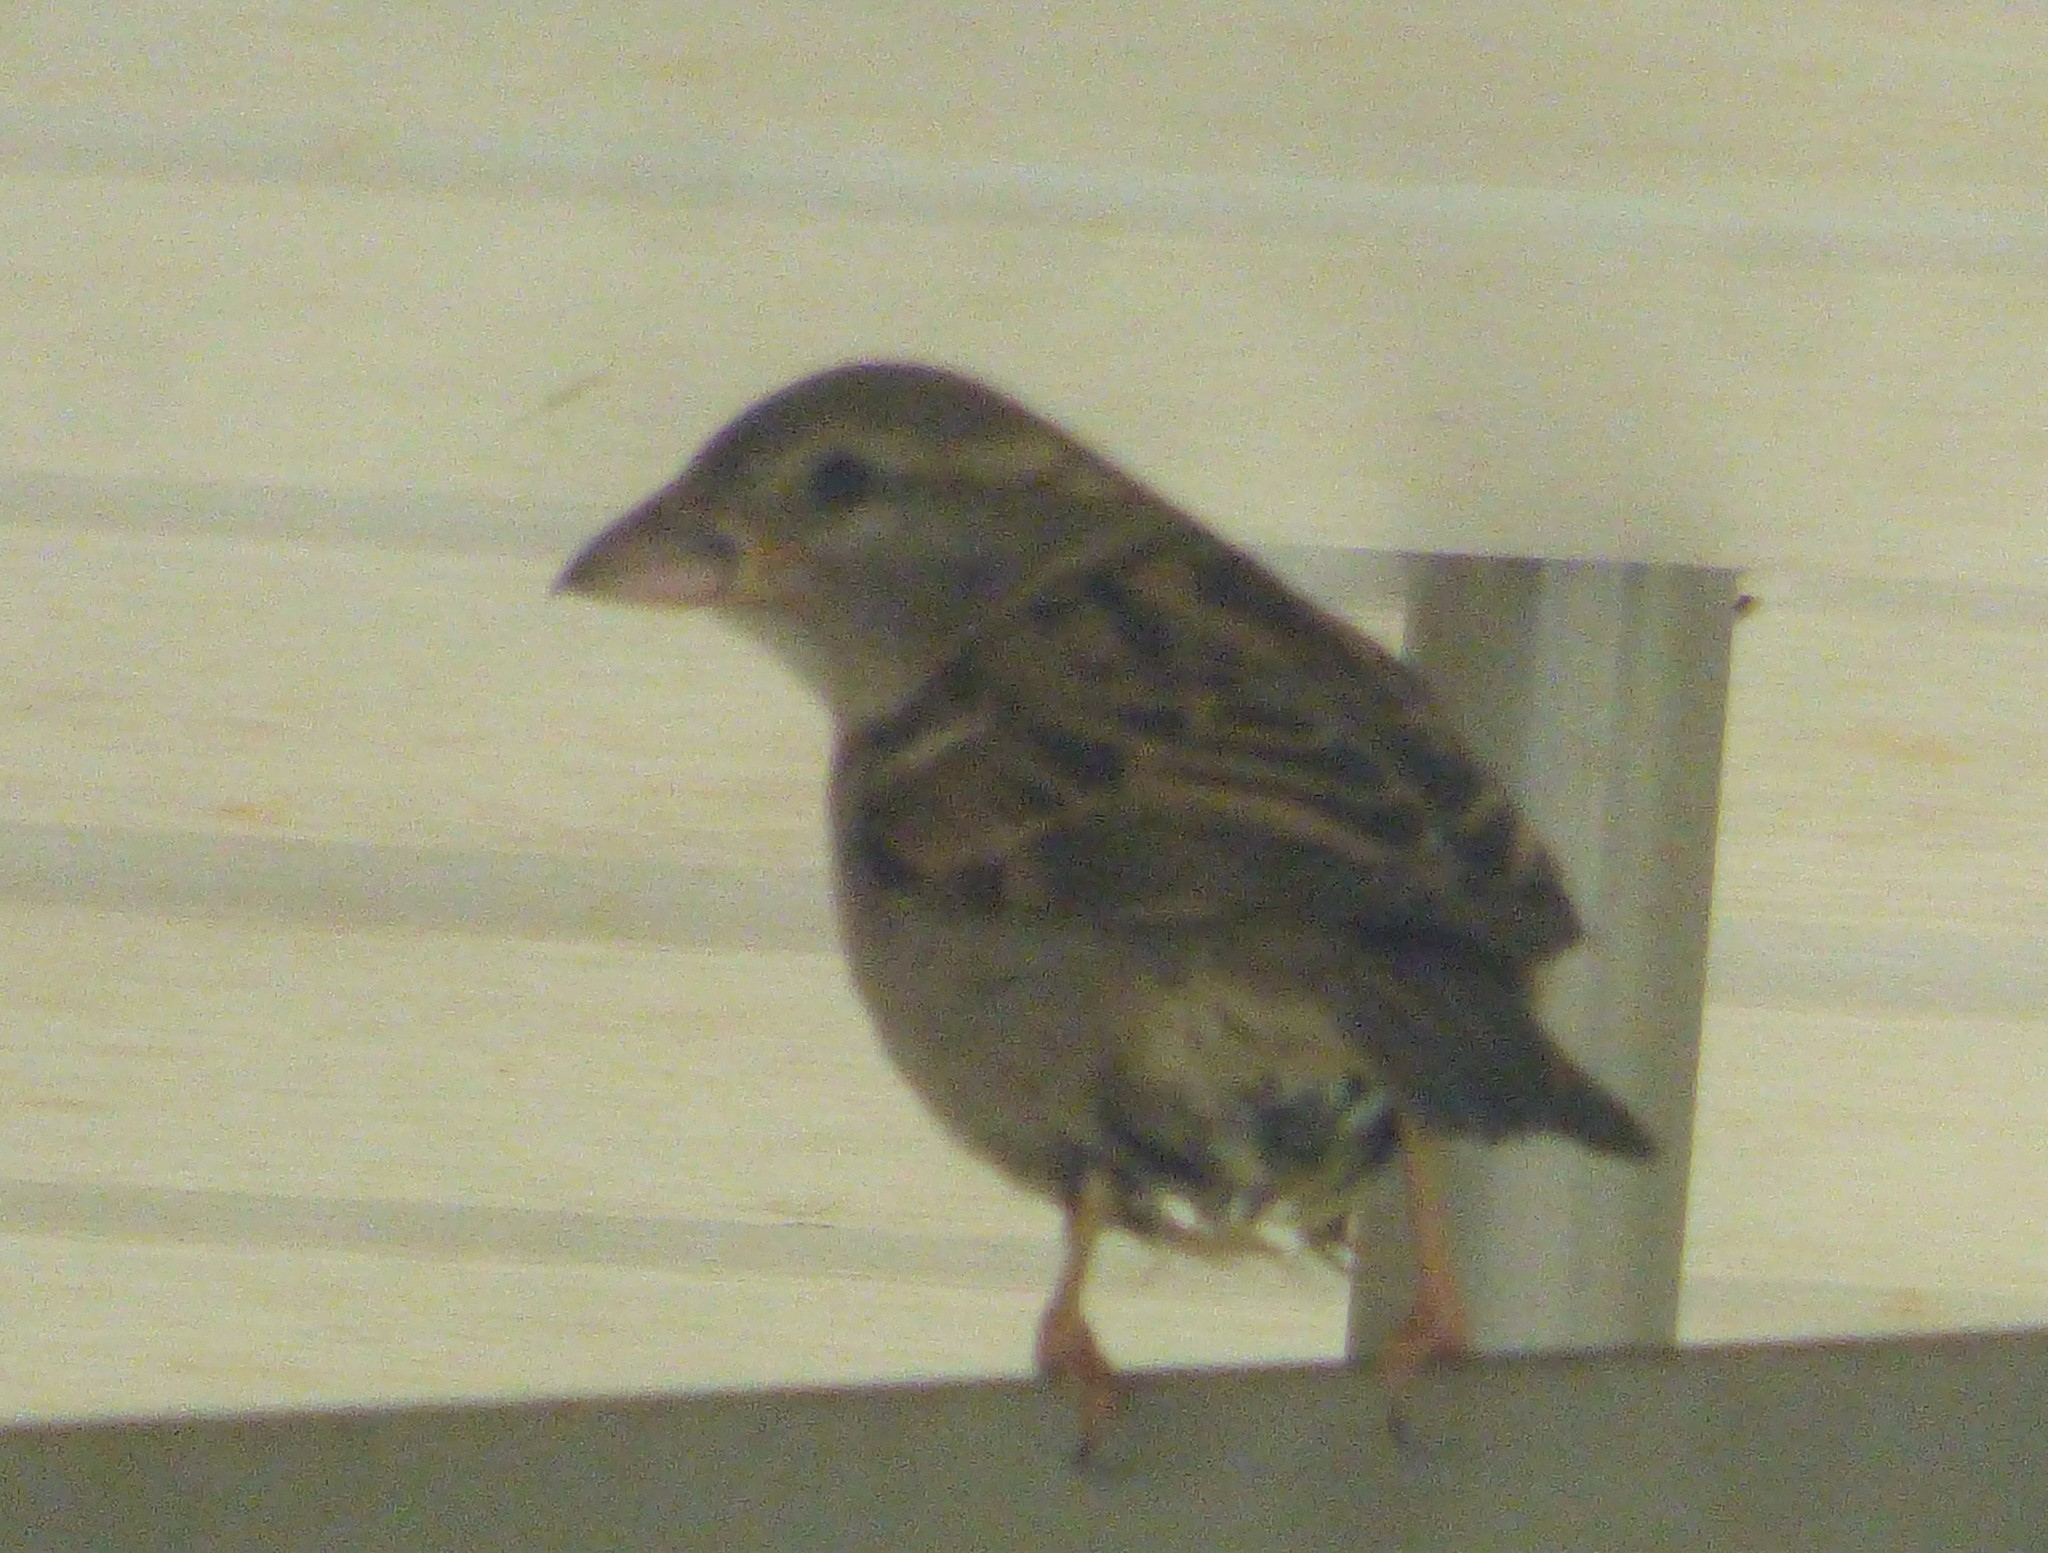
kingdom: Animalia
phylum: Chordata
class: Aves
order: Passeriformes
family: Passeridae
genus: Passer
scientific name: Passer domesticus
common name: House sparrow
